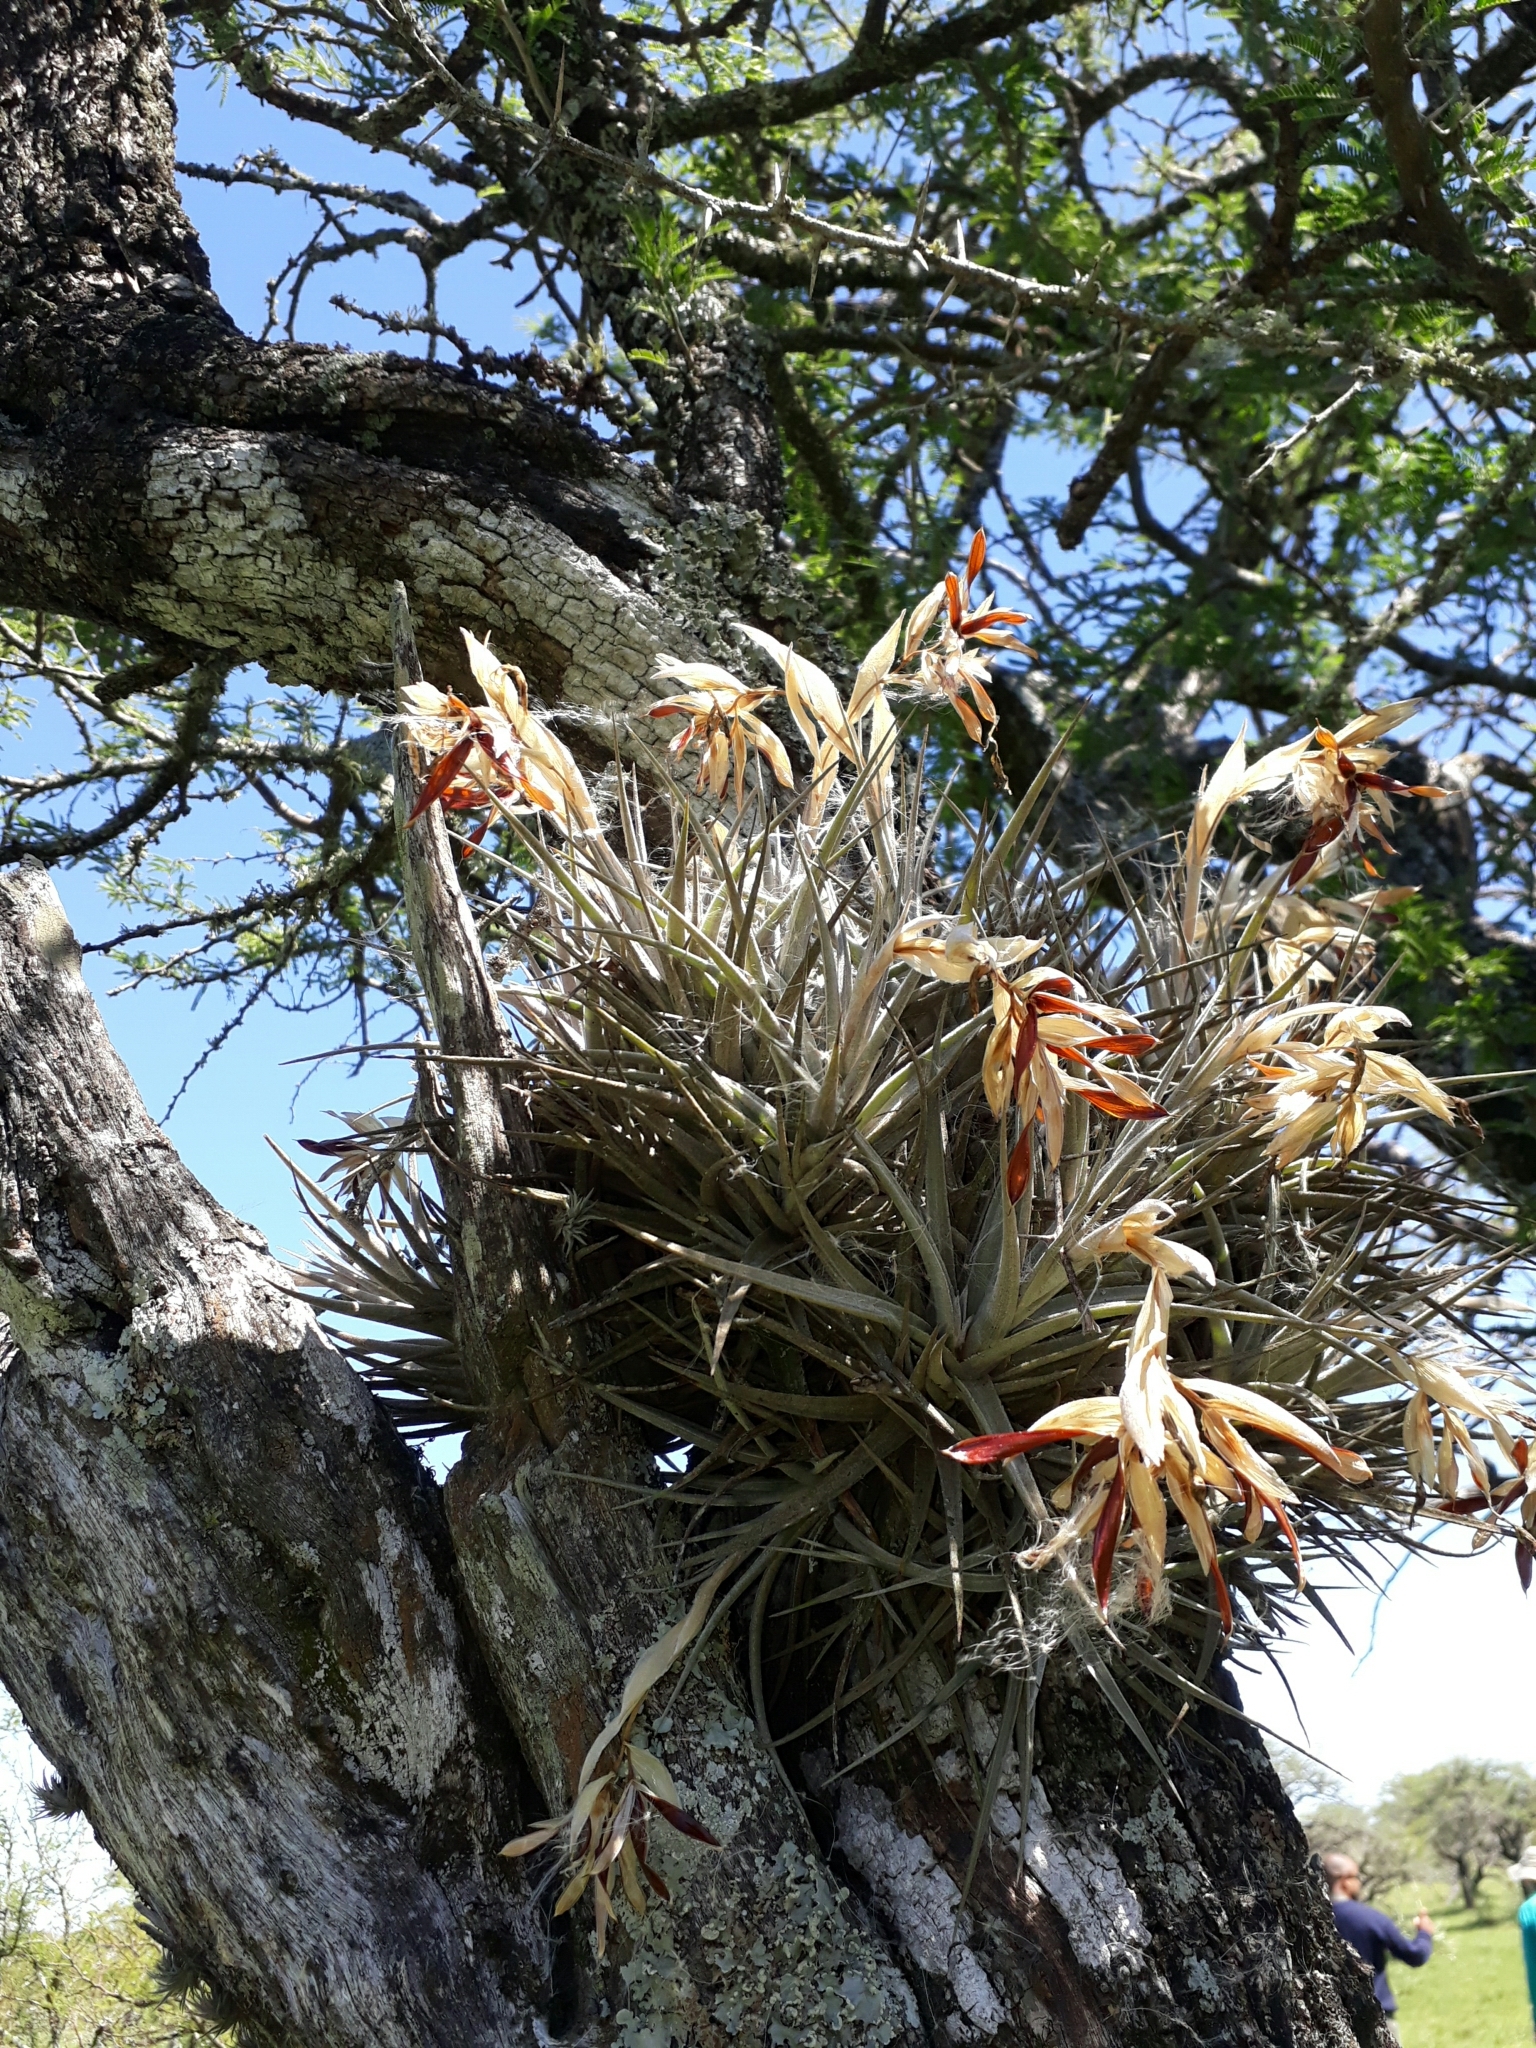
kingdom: Plantae
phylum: Tracheophyta
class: Liliopsida
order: Poales
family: Bromeliaceae
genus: Tillandsia
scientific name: Tillandsia ixioides
